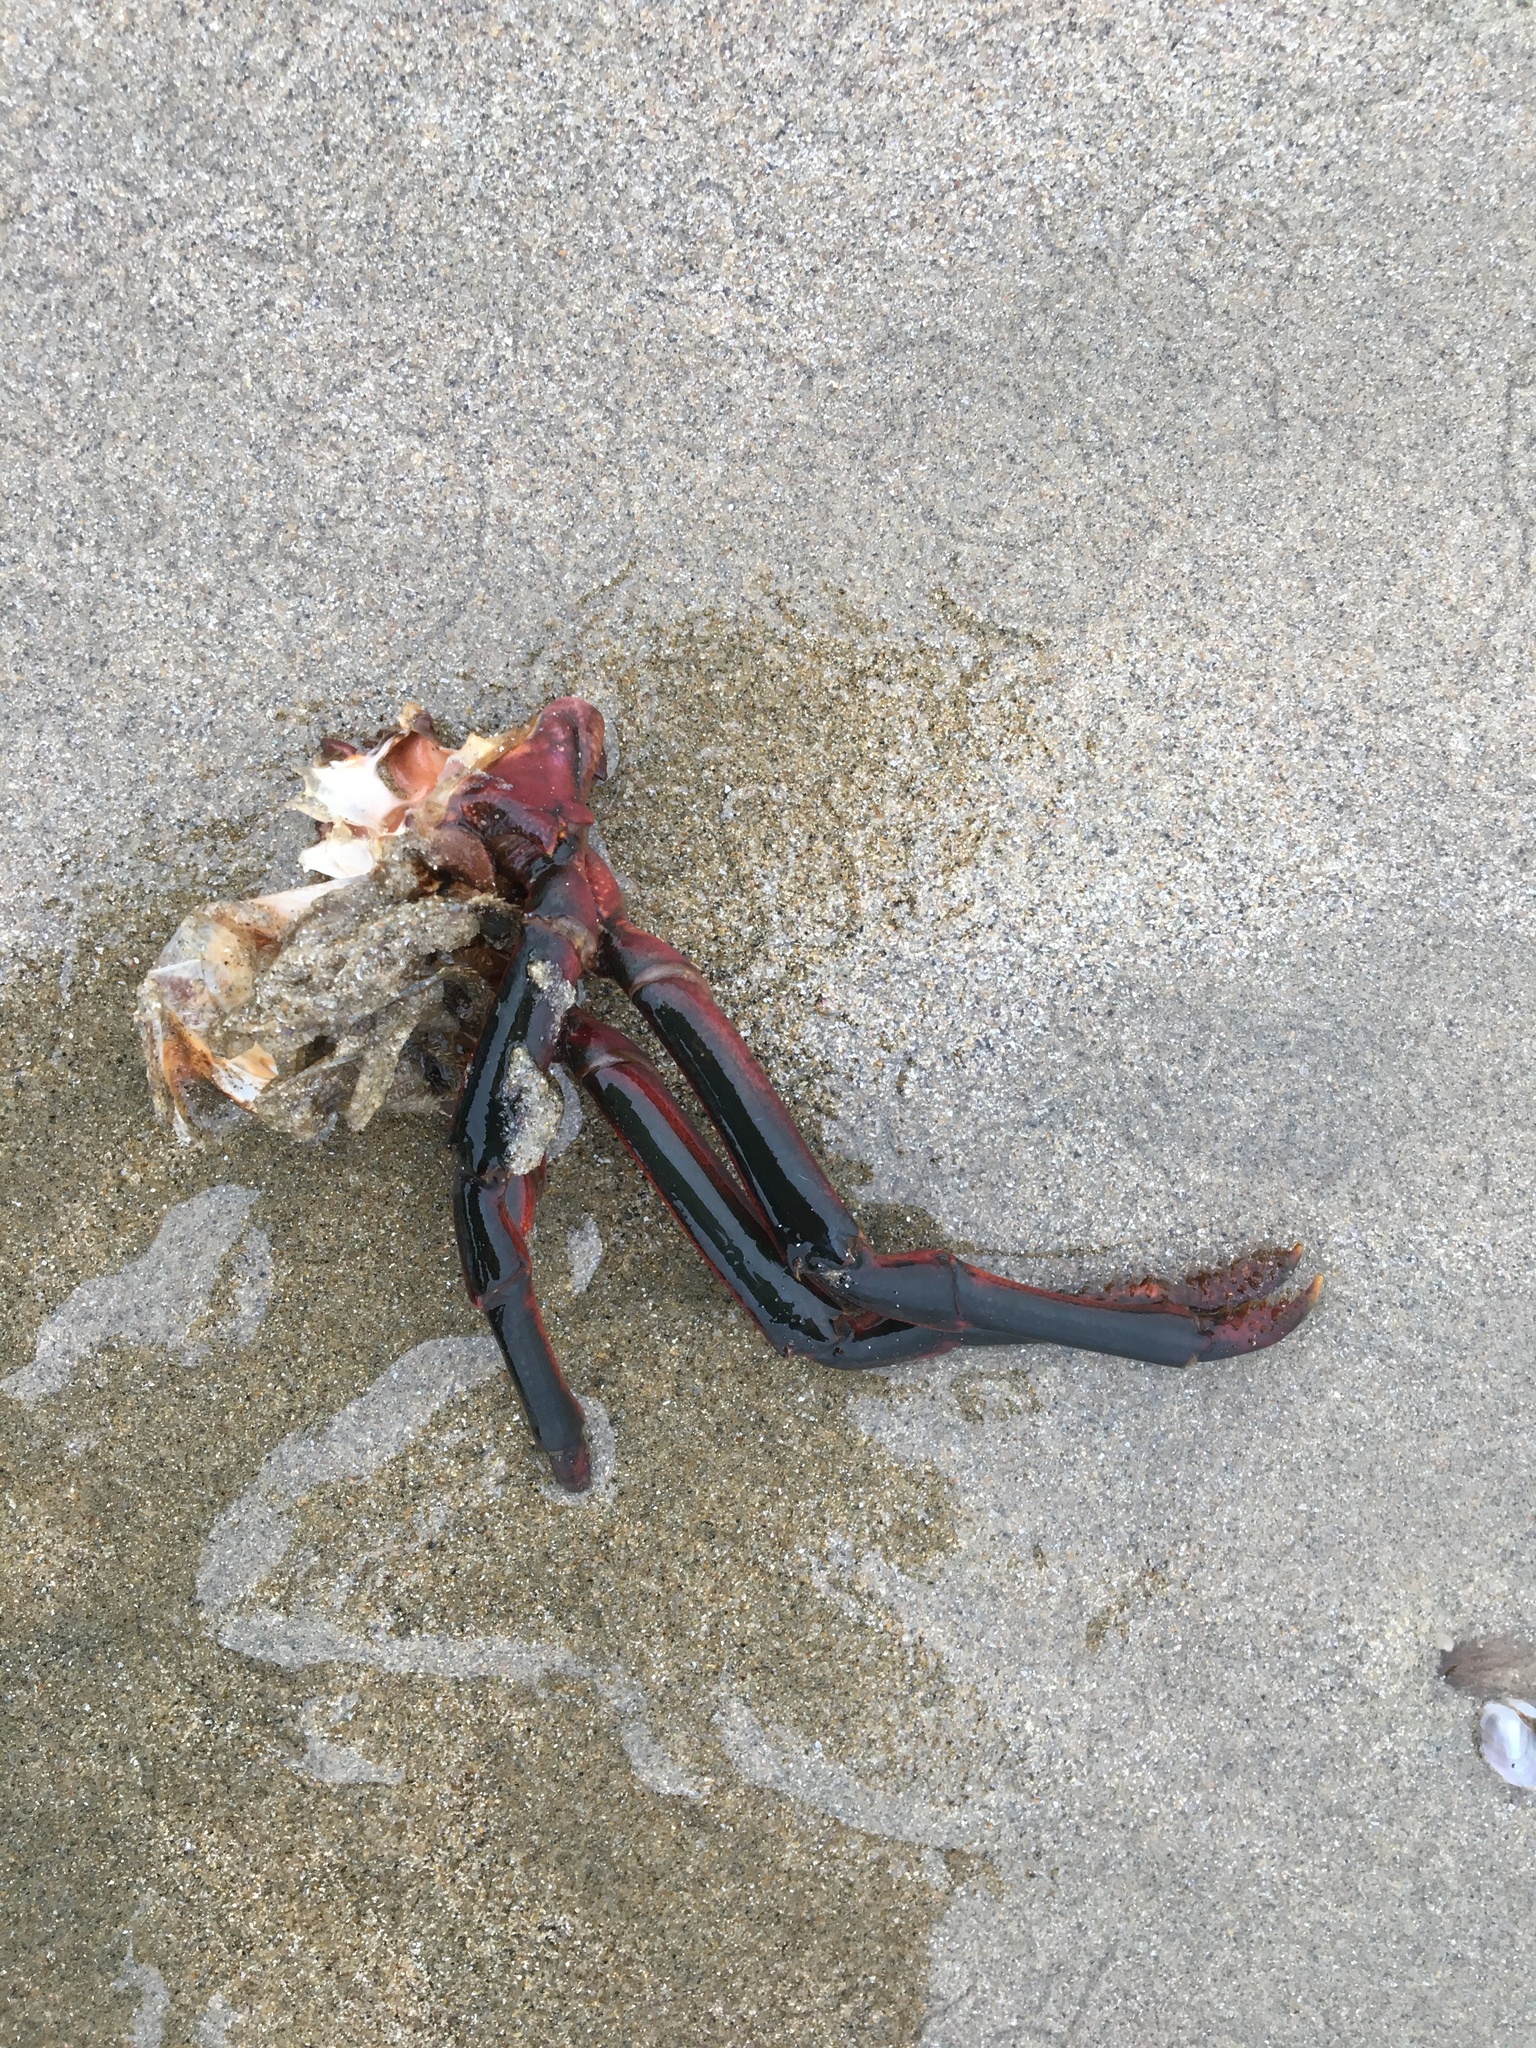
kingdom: Animalia
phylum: Arthropoda
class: Malacostraca
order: Decapoda
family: Palinuridae
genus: Panulirus
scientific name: Panulirus interruptus
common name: California spiny lobster
